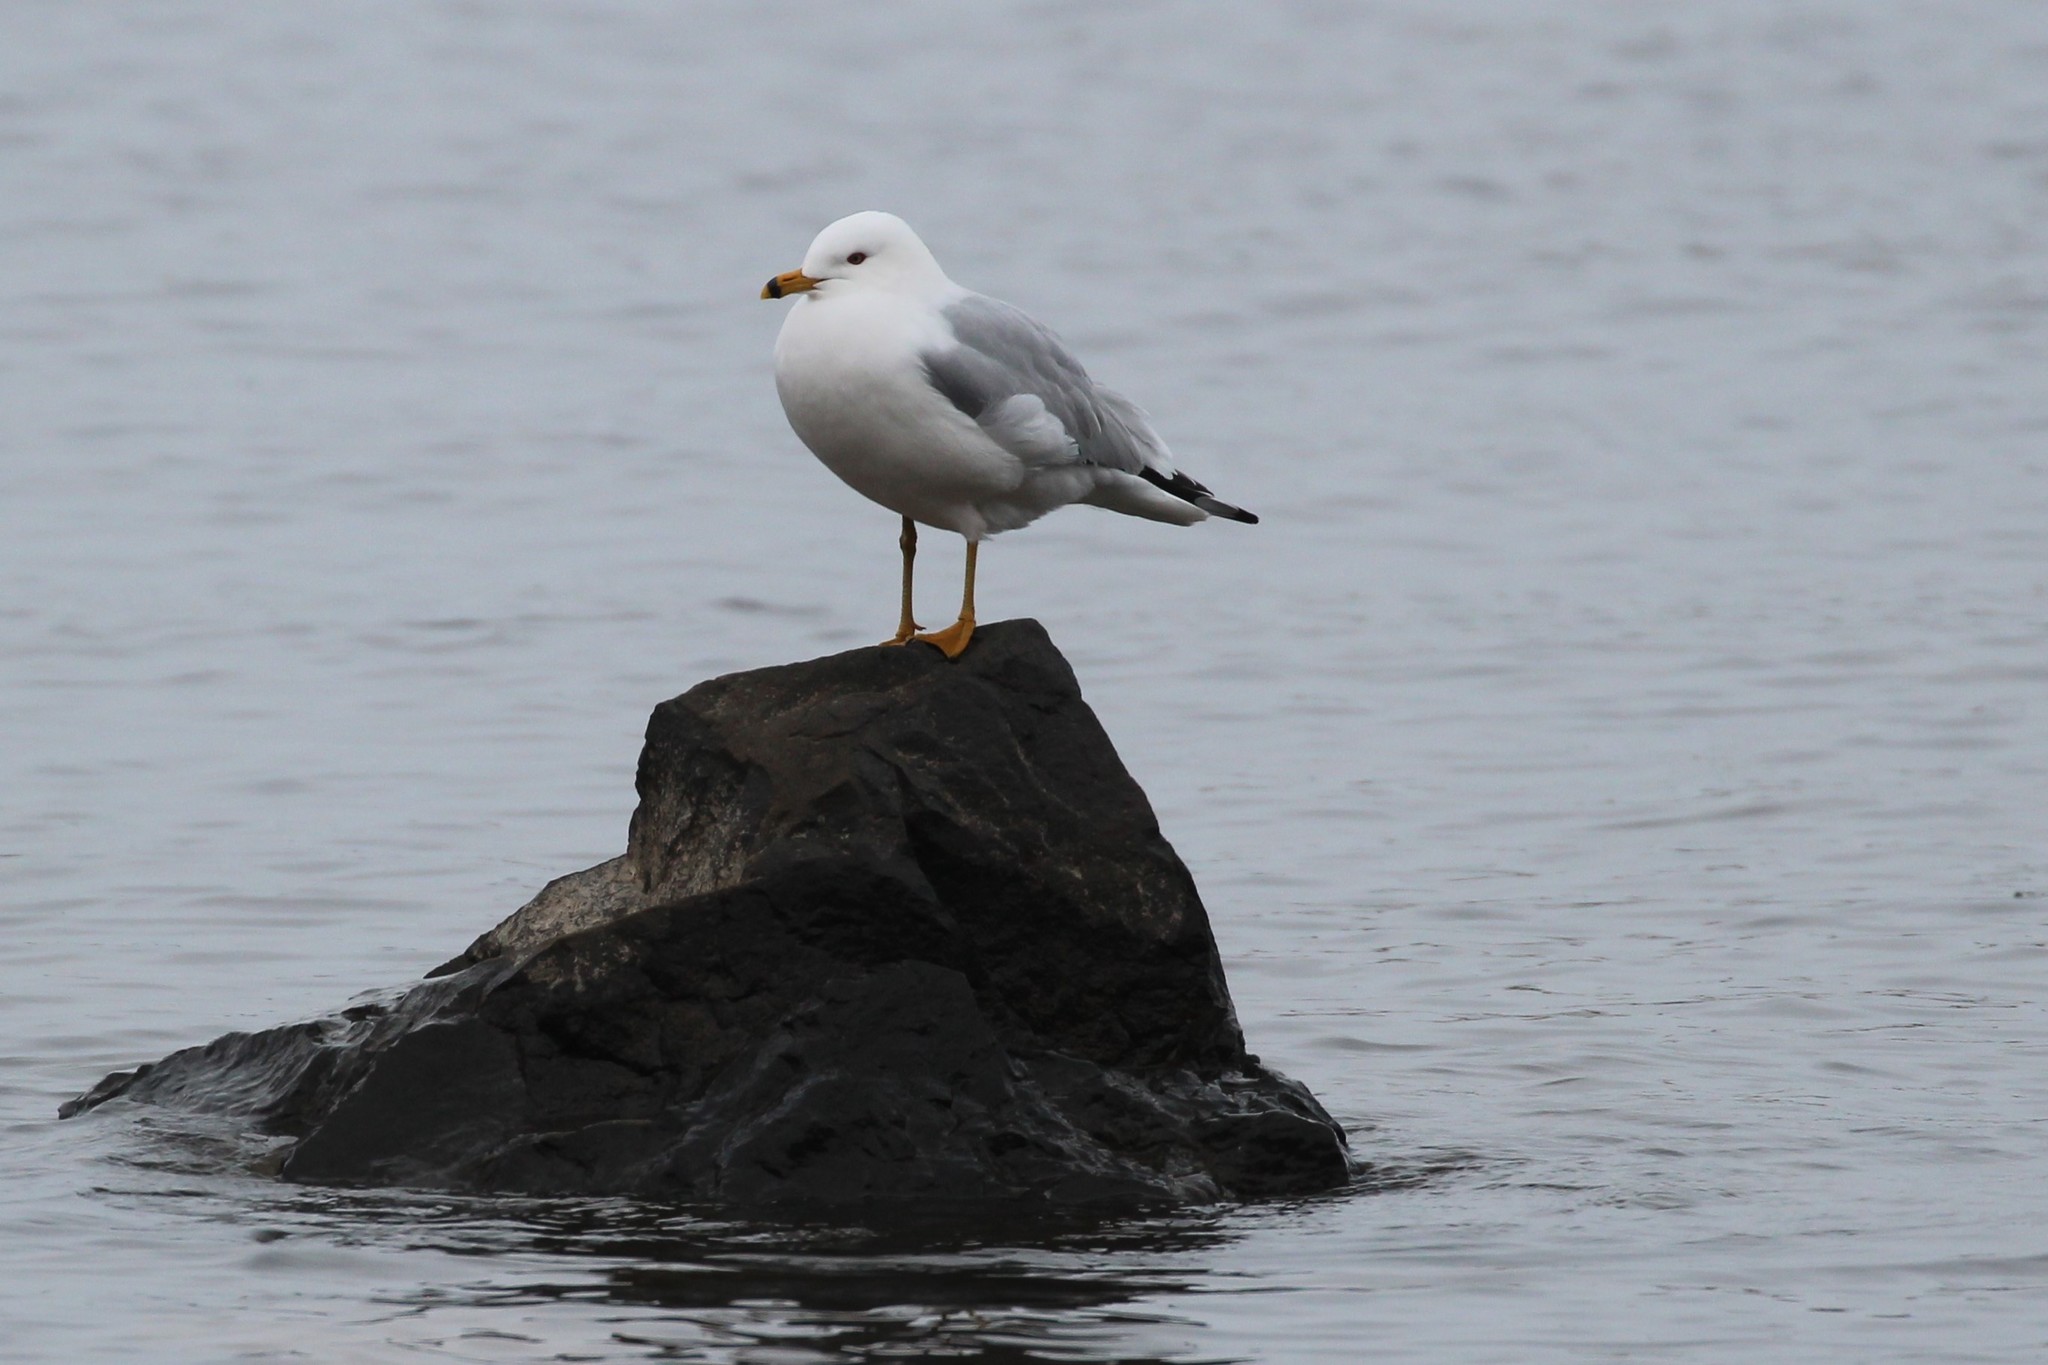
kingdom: Animalia
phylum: Chordata
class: Aves
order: Charadriiformes
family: Laridae
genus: Larus
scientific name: Larus delawarensis
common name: Ring-billed gull
